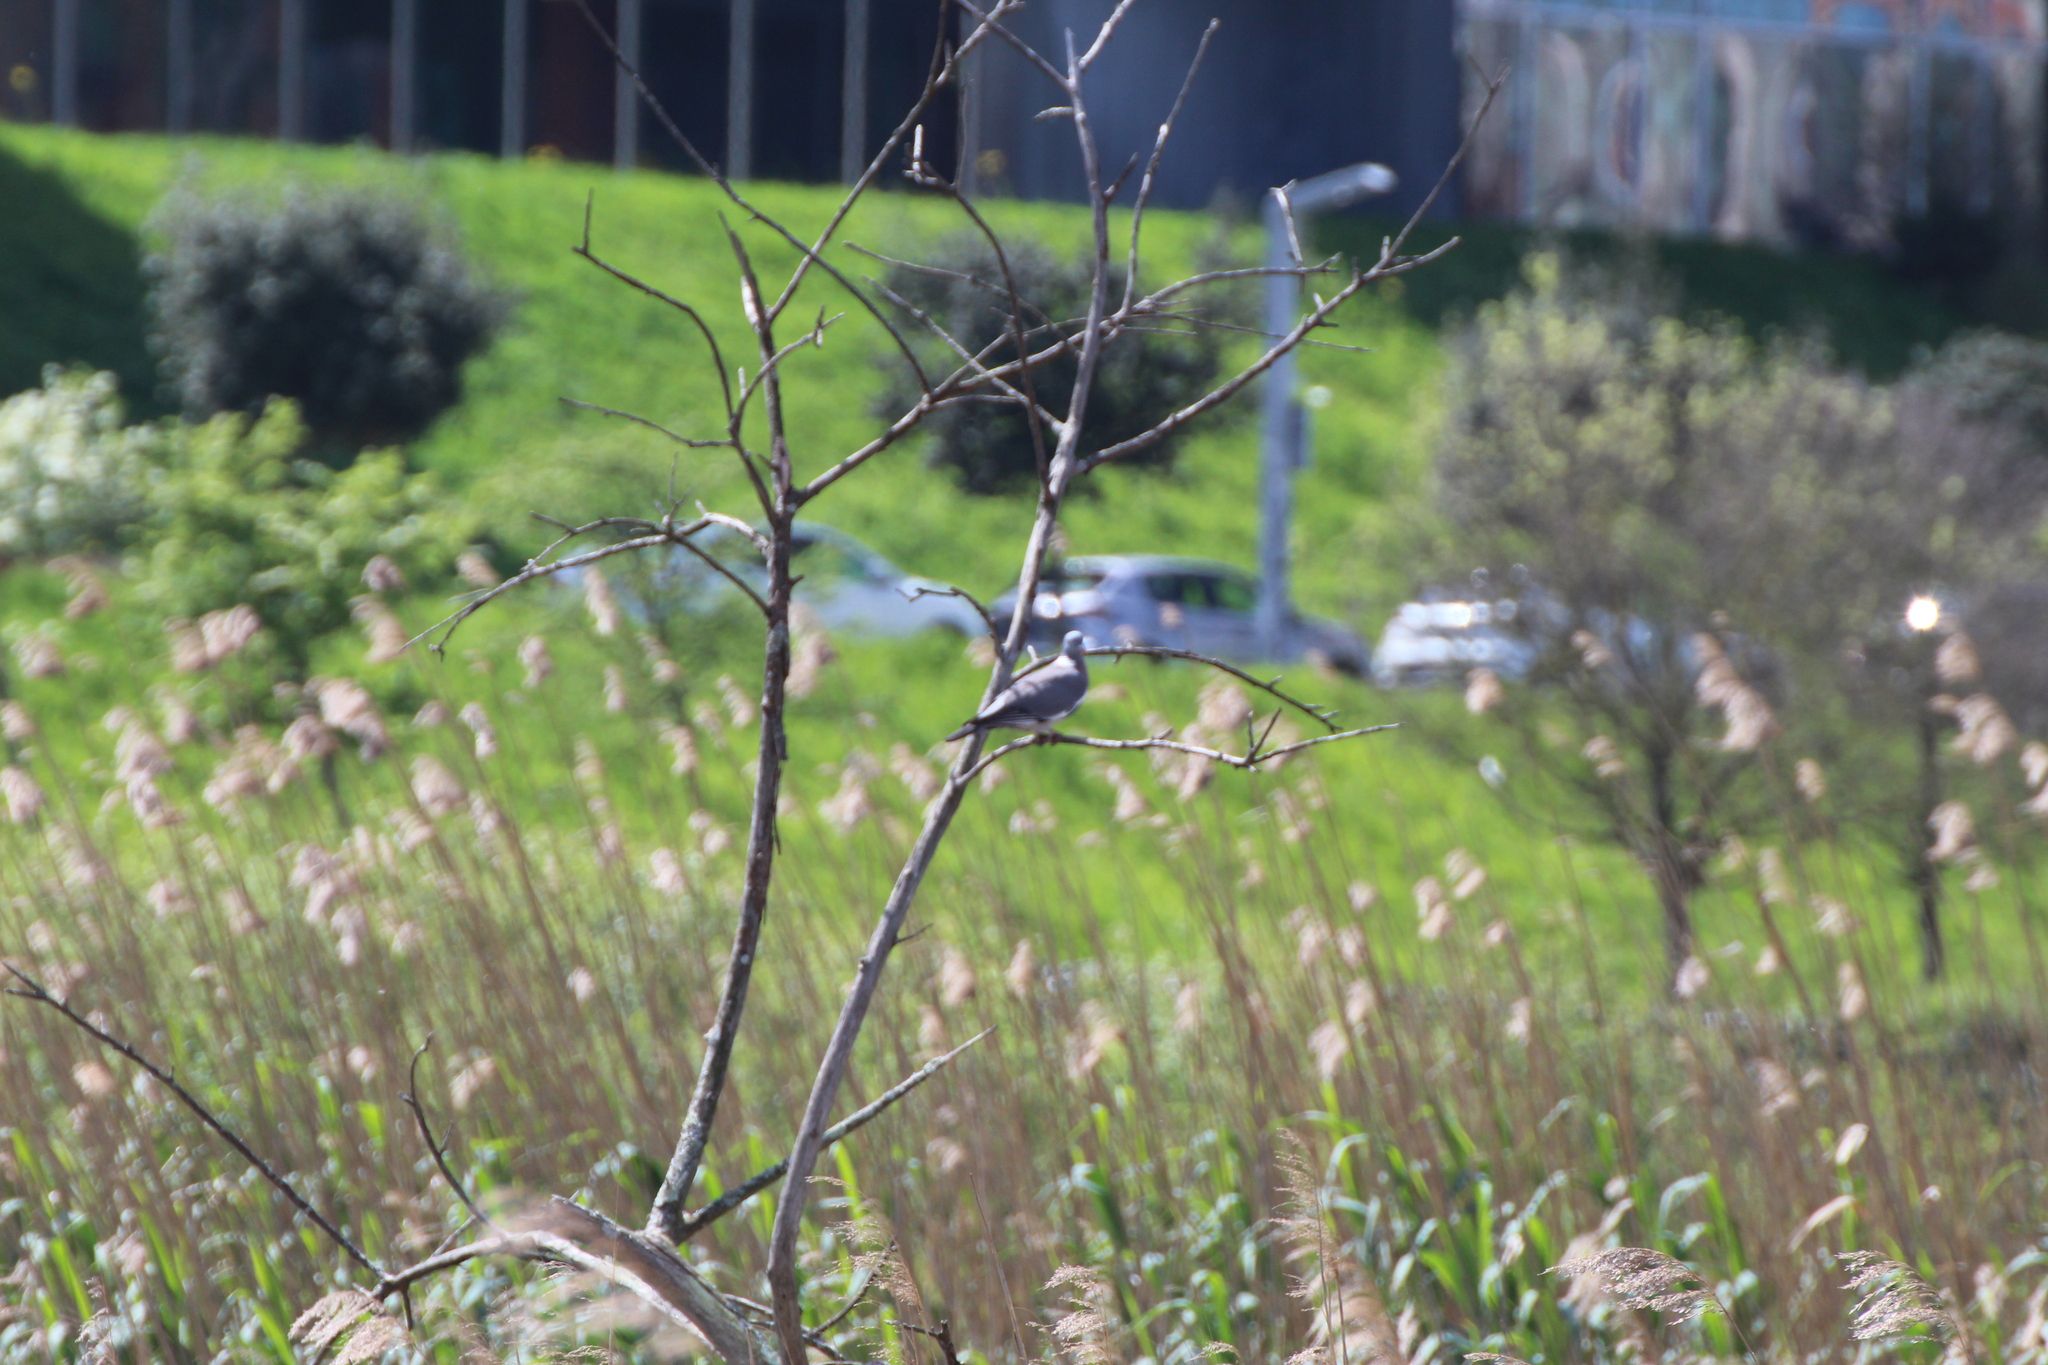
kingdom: Animalia
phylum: Chordata
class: Aves
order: Columbiformes
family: Columbidae
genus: Columba
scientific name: Columba palumbus
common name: Common wood pigeon
